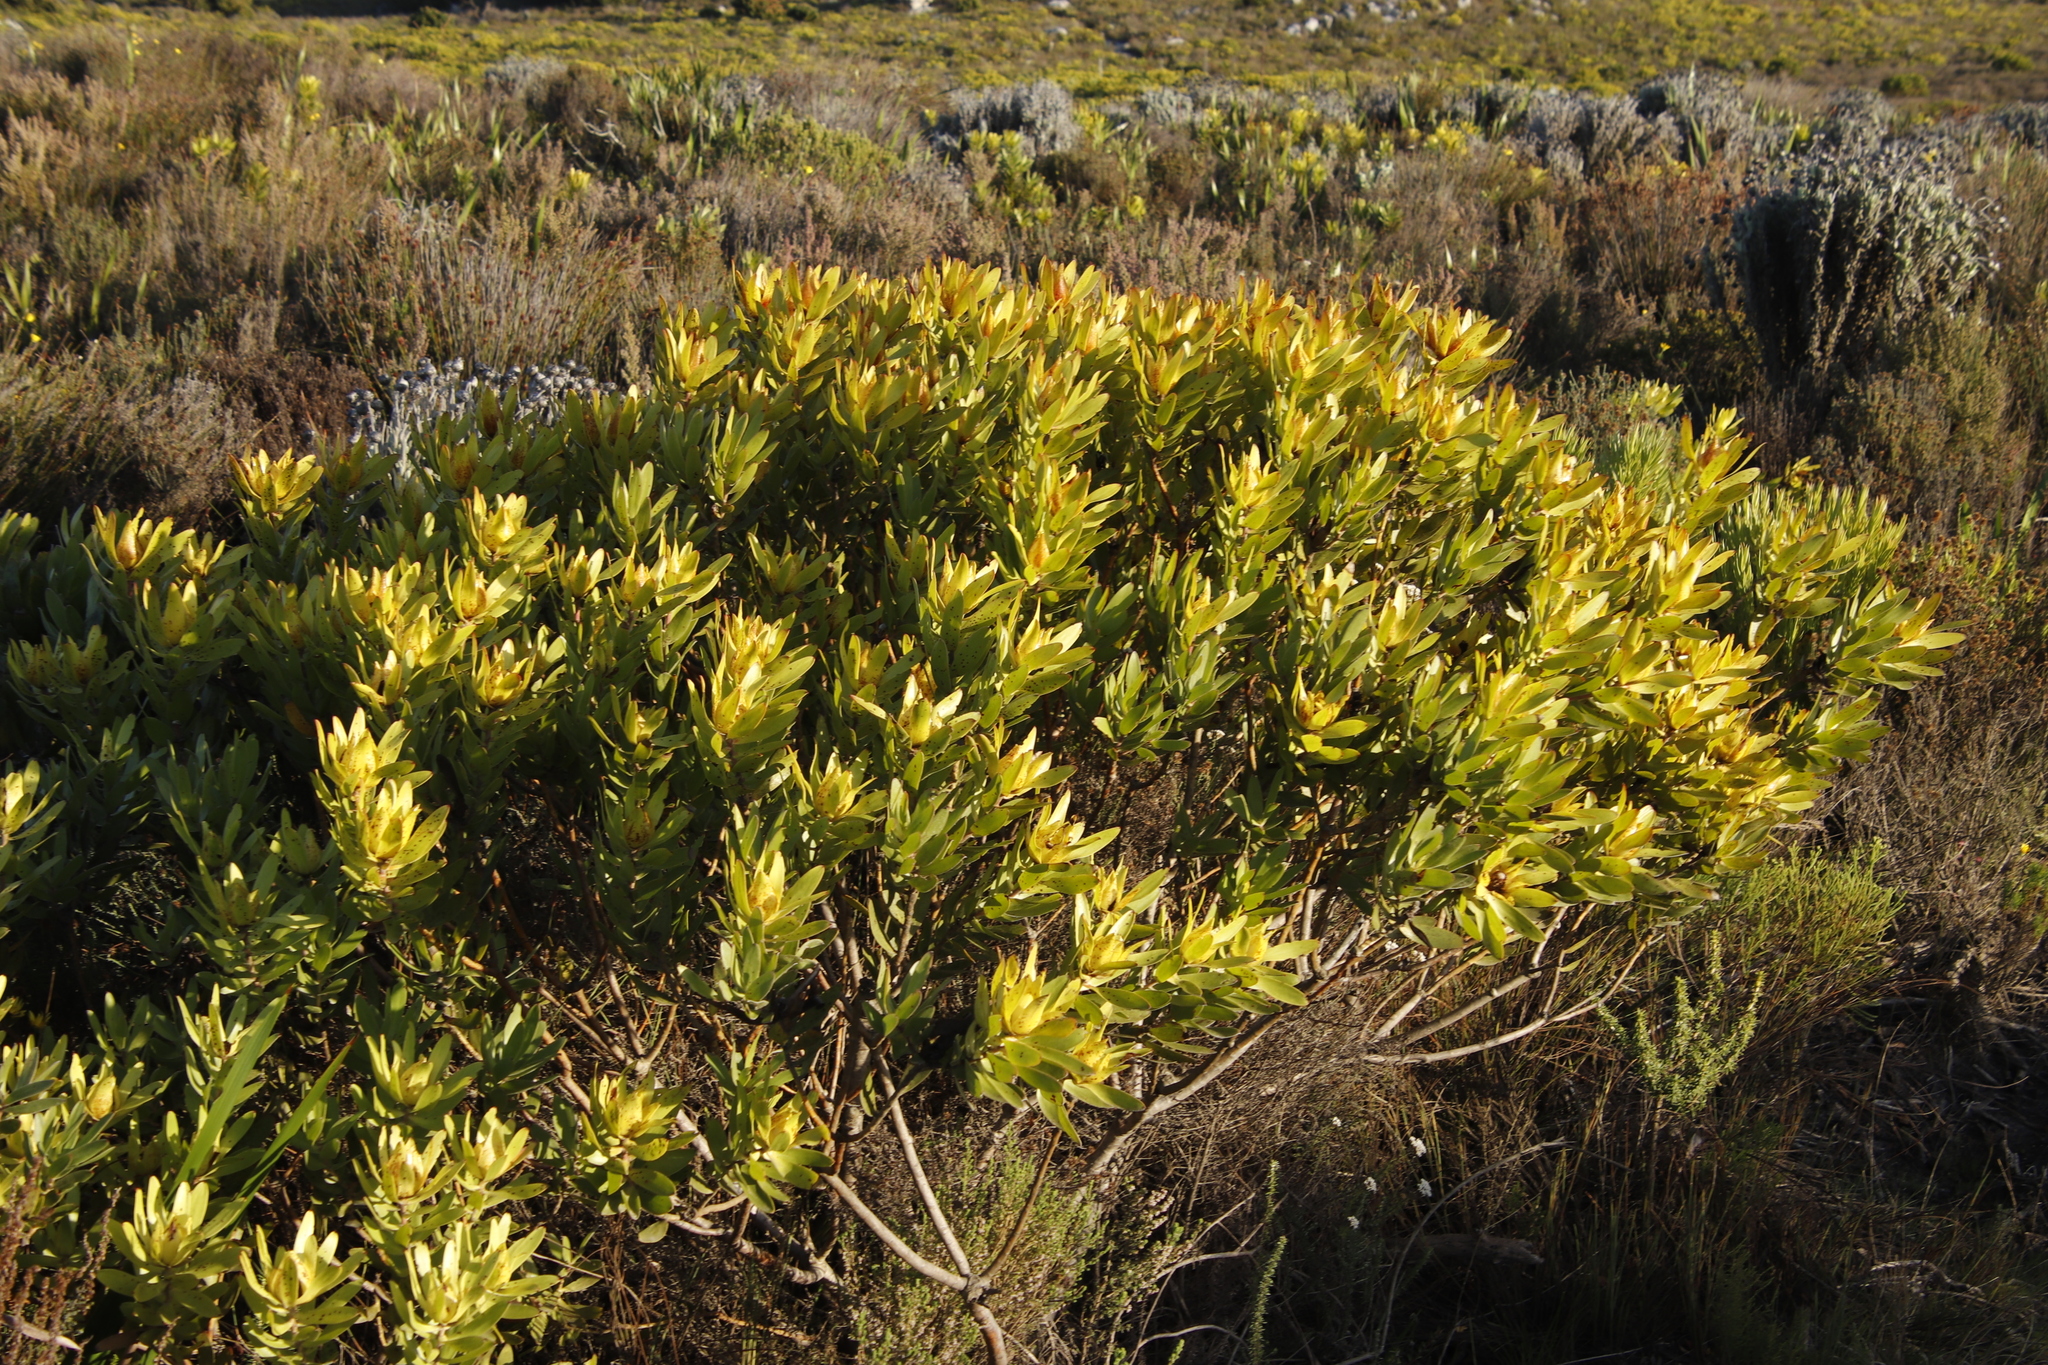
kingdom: Plantae
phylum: Tracheophyta
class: Magnoliopsida
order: Proteales
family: Proteaceae
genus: Leucadendron
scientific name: Leucadendron laureolum
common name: Golden sunshinebush
